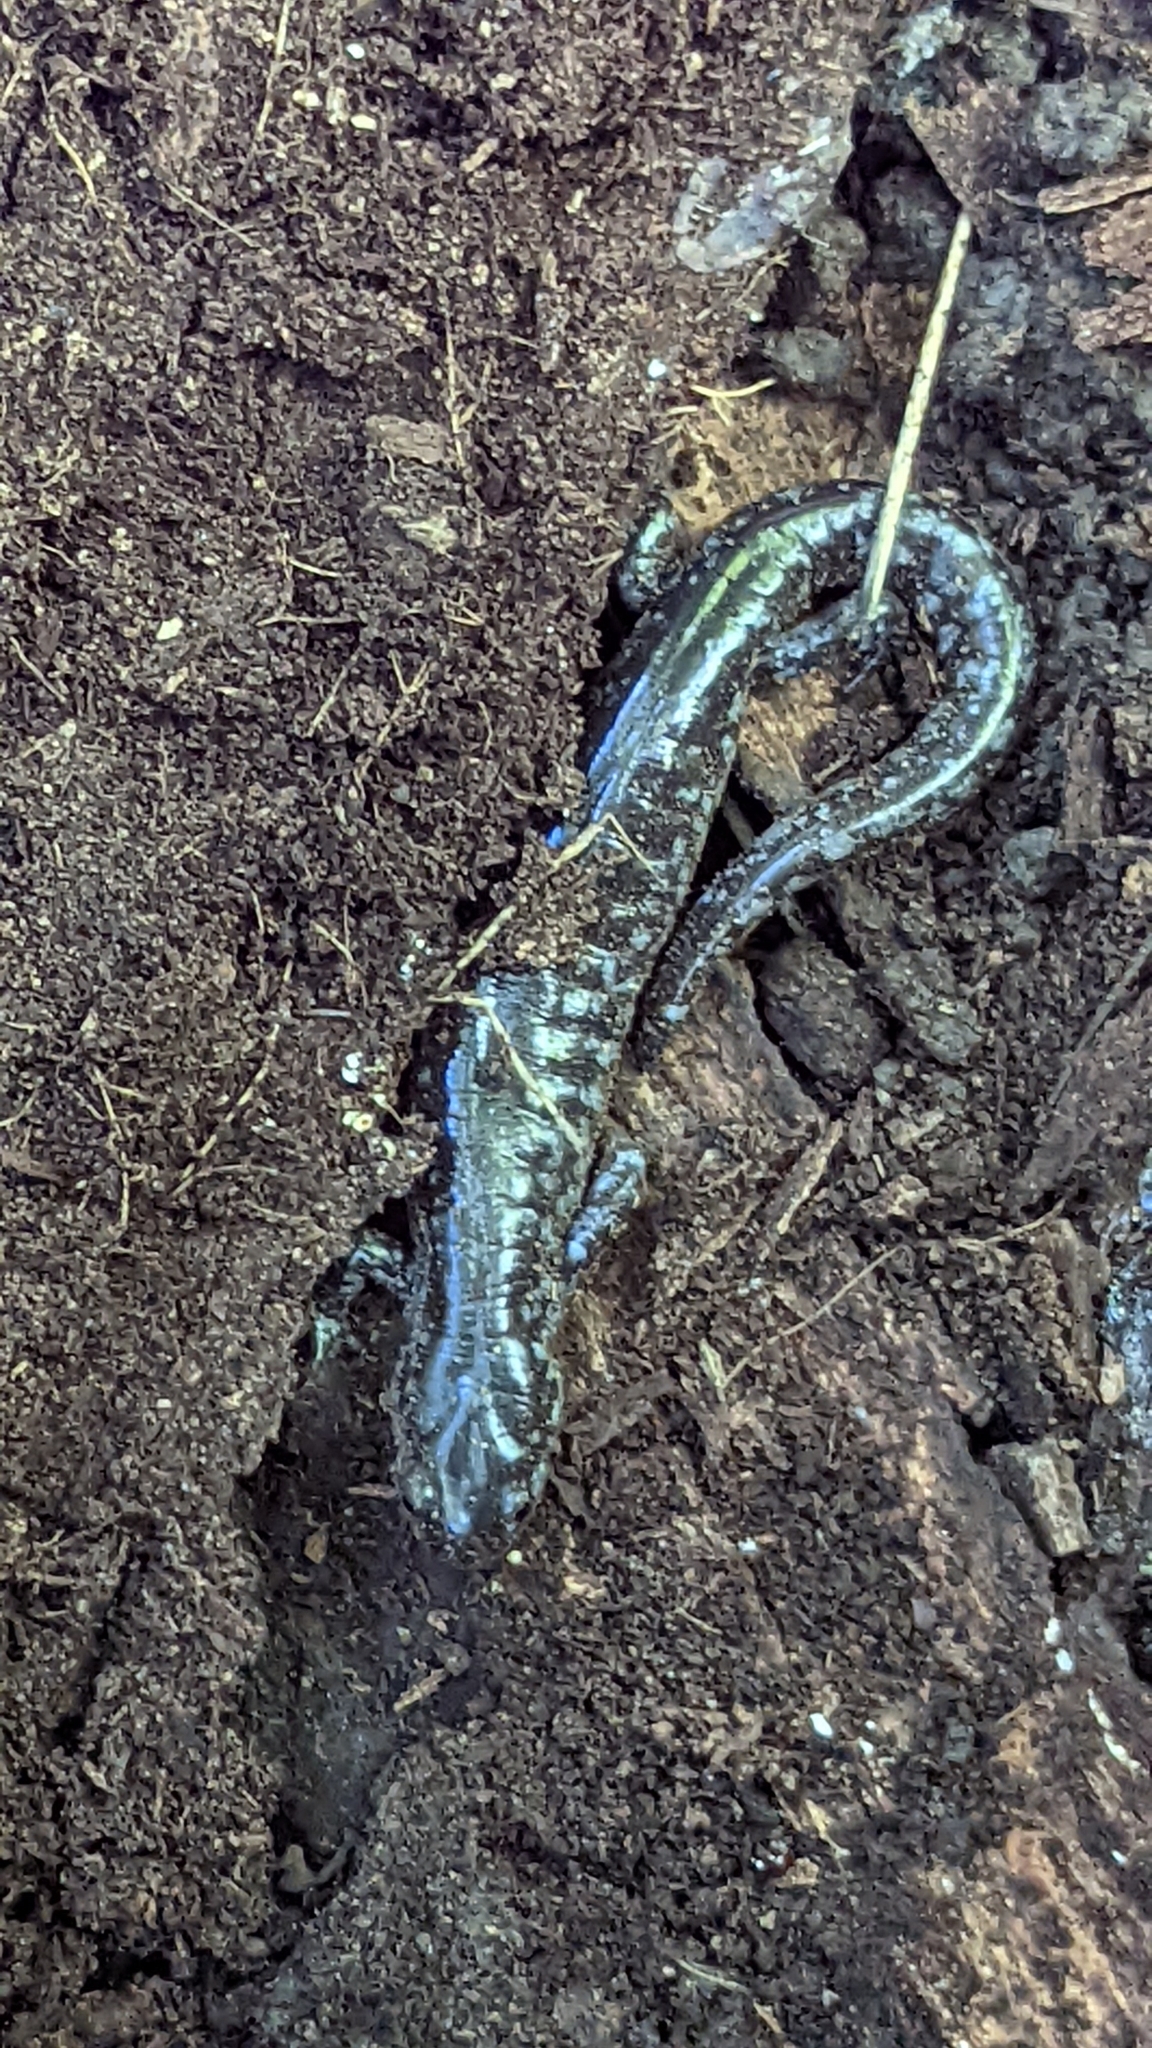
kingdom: Animalia
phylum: Chordata
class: Amphibia
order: Caudata
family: Ambystomatidae
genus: Ambystoma
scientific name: Ambystoma unisexual
